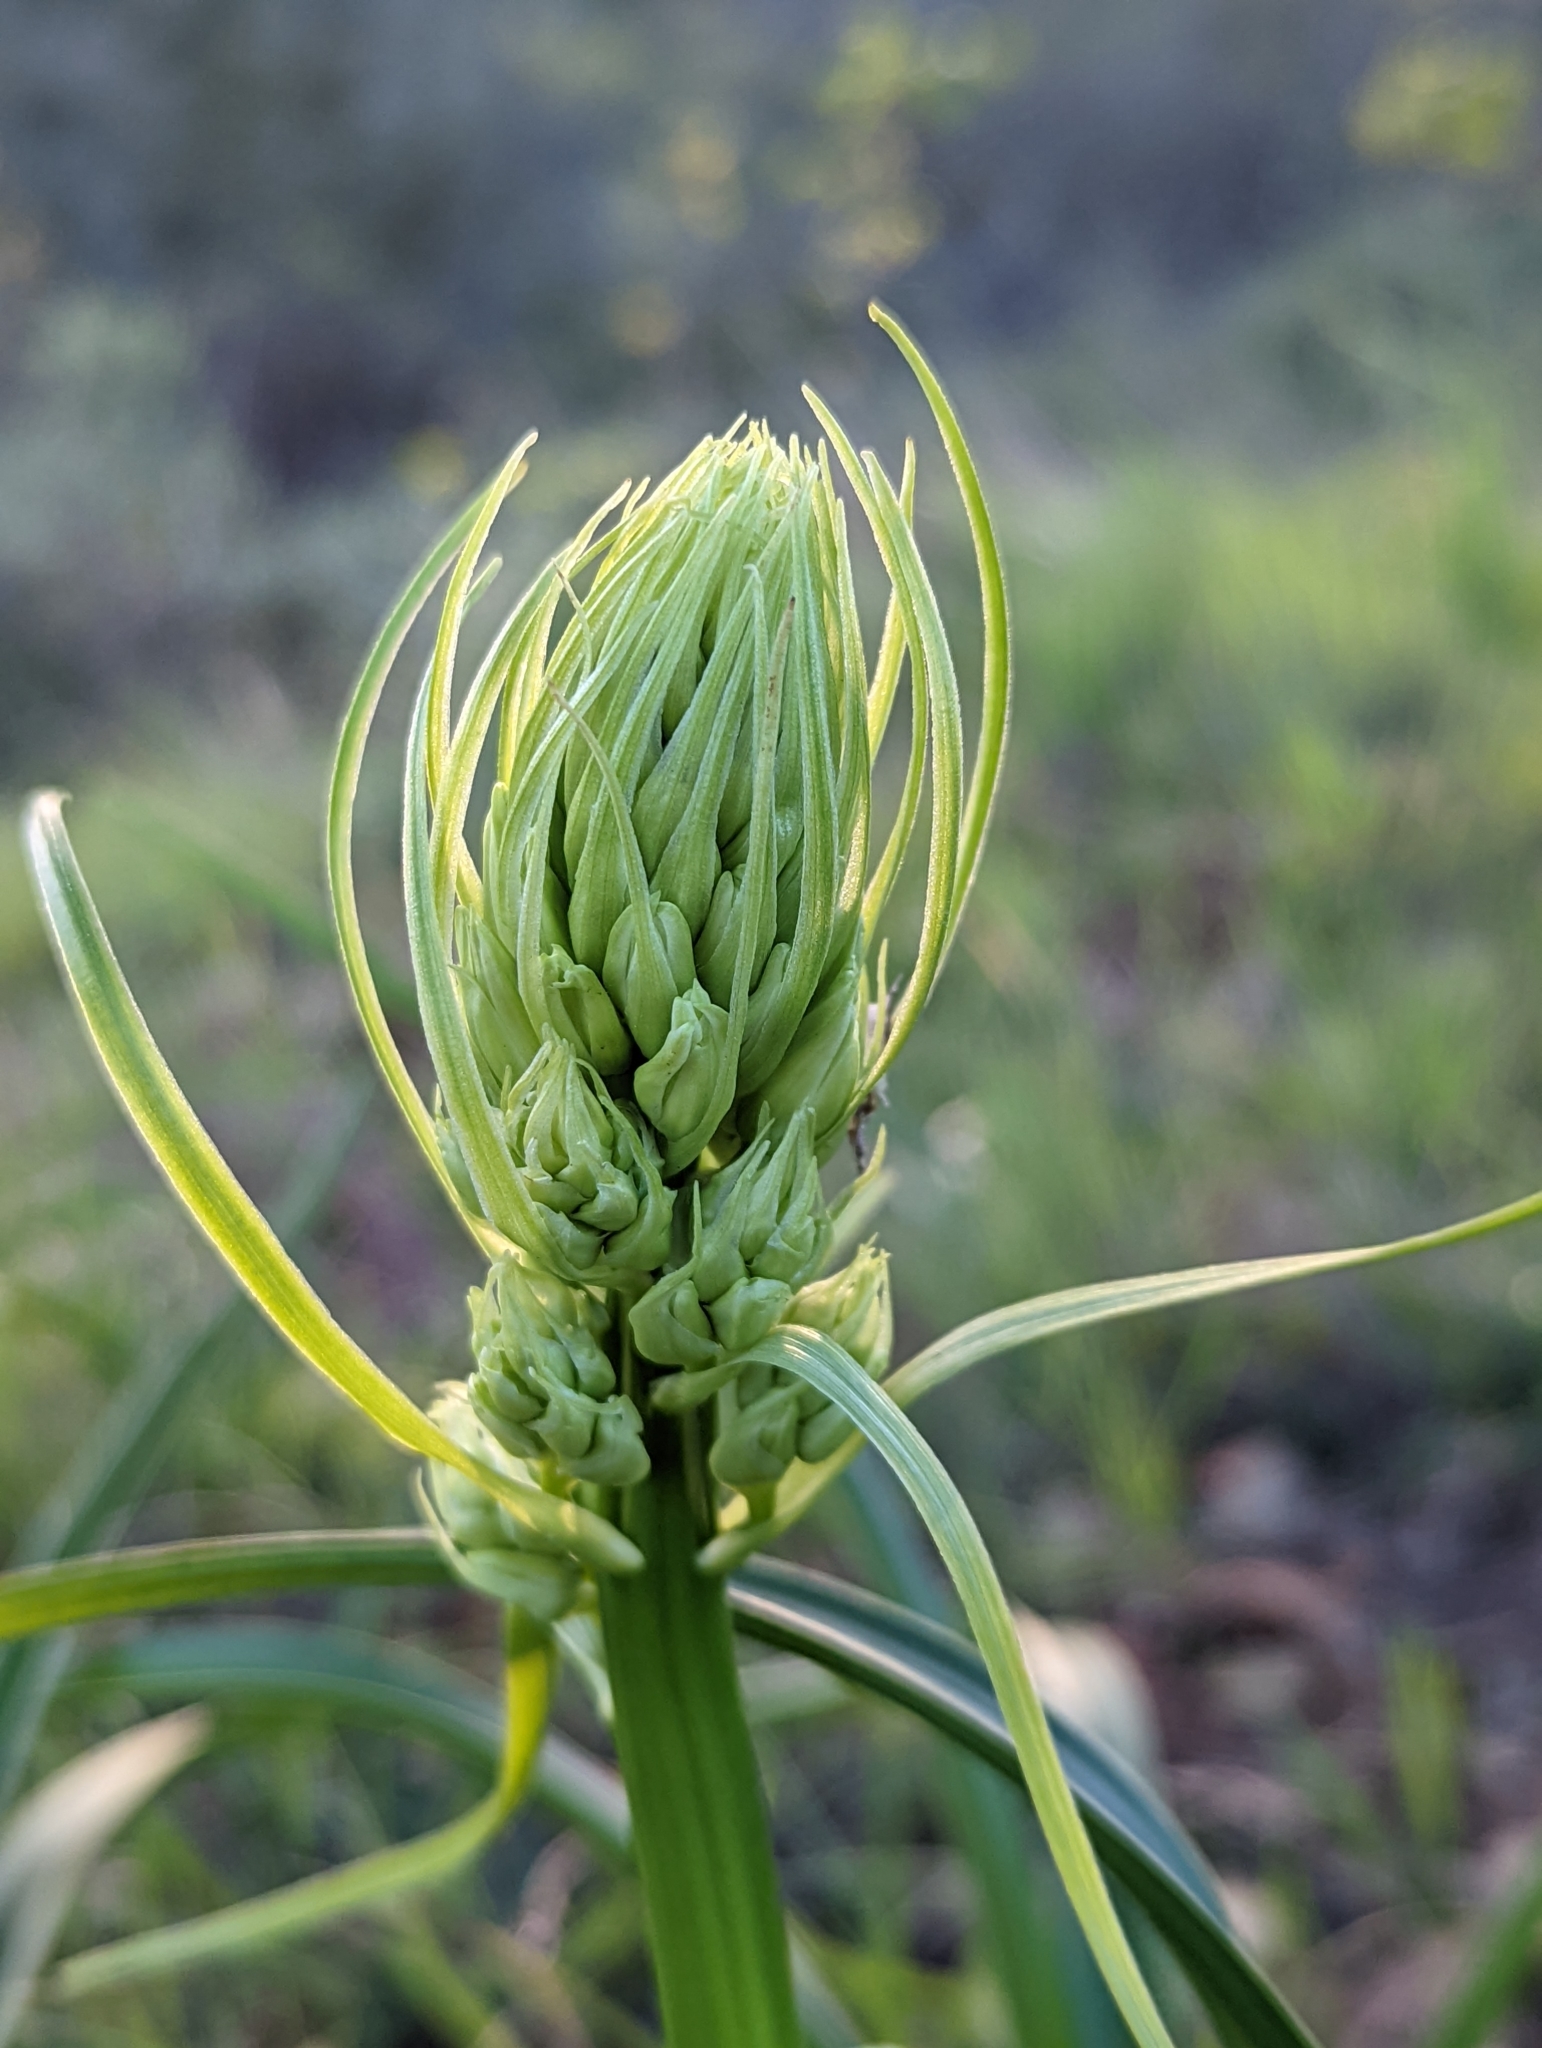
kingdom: Plantae
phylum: Tracheophyta
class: Liliopsida
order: Liliales
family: Melanthiaceae
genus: Toxicoscordion
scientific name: Toxicoscordion fremontii
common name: Fremont's death camas
